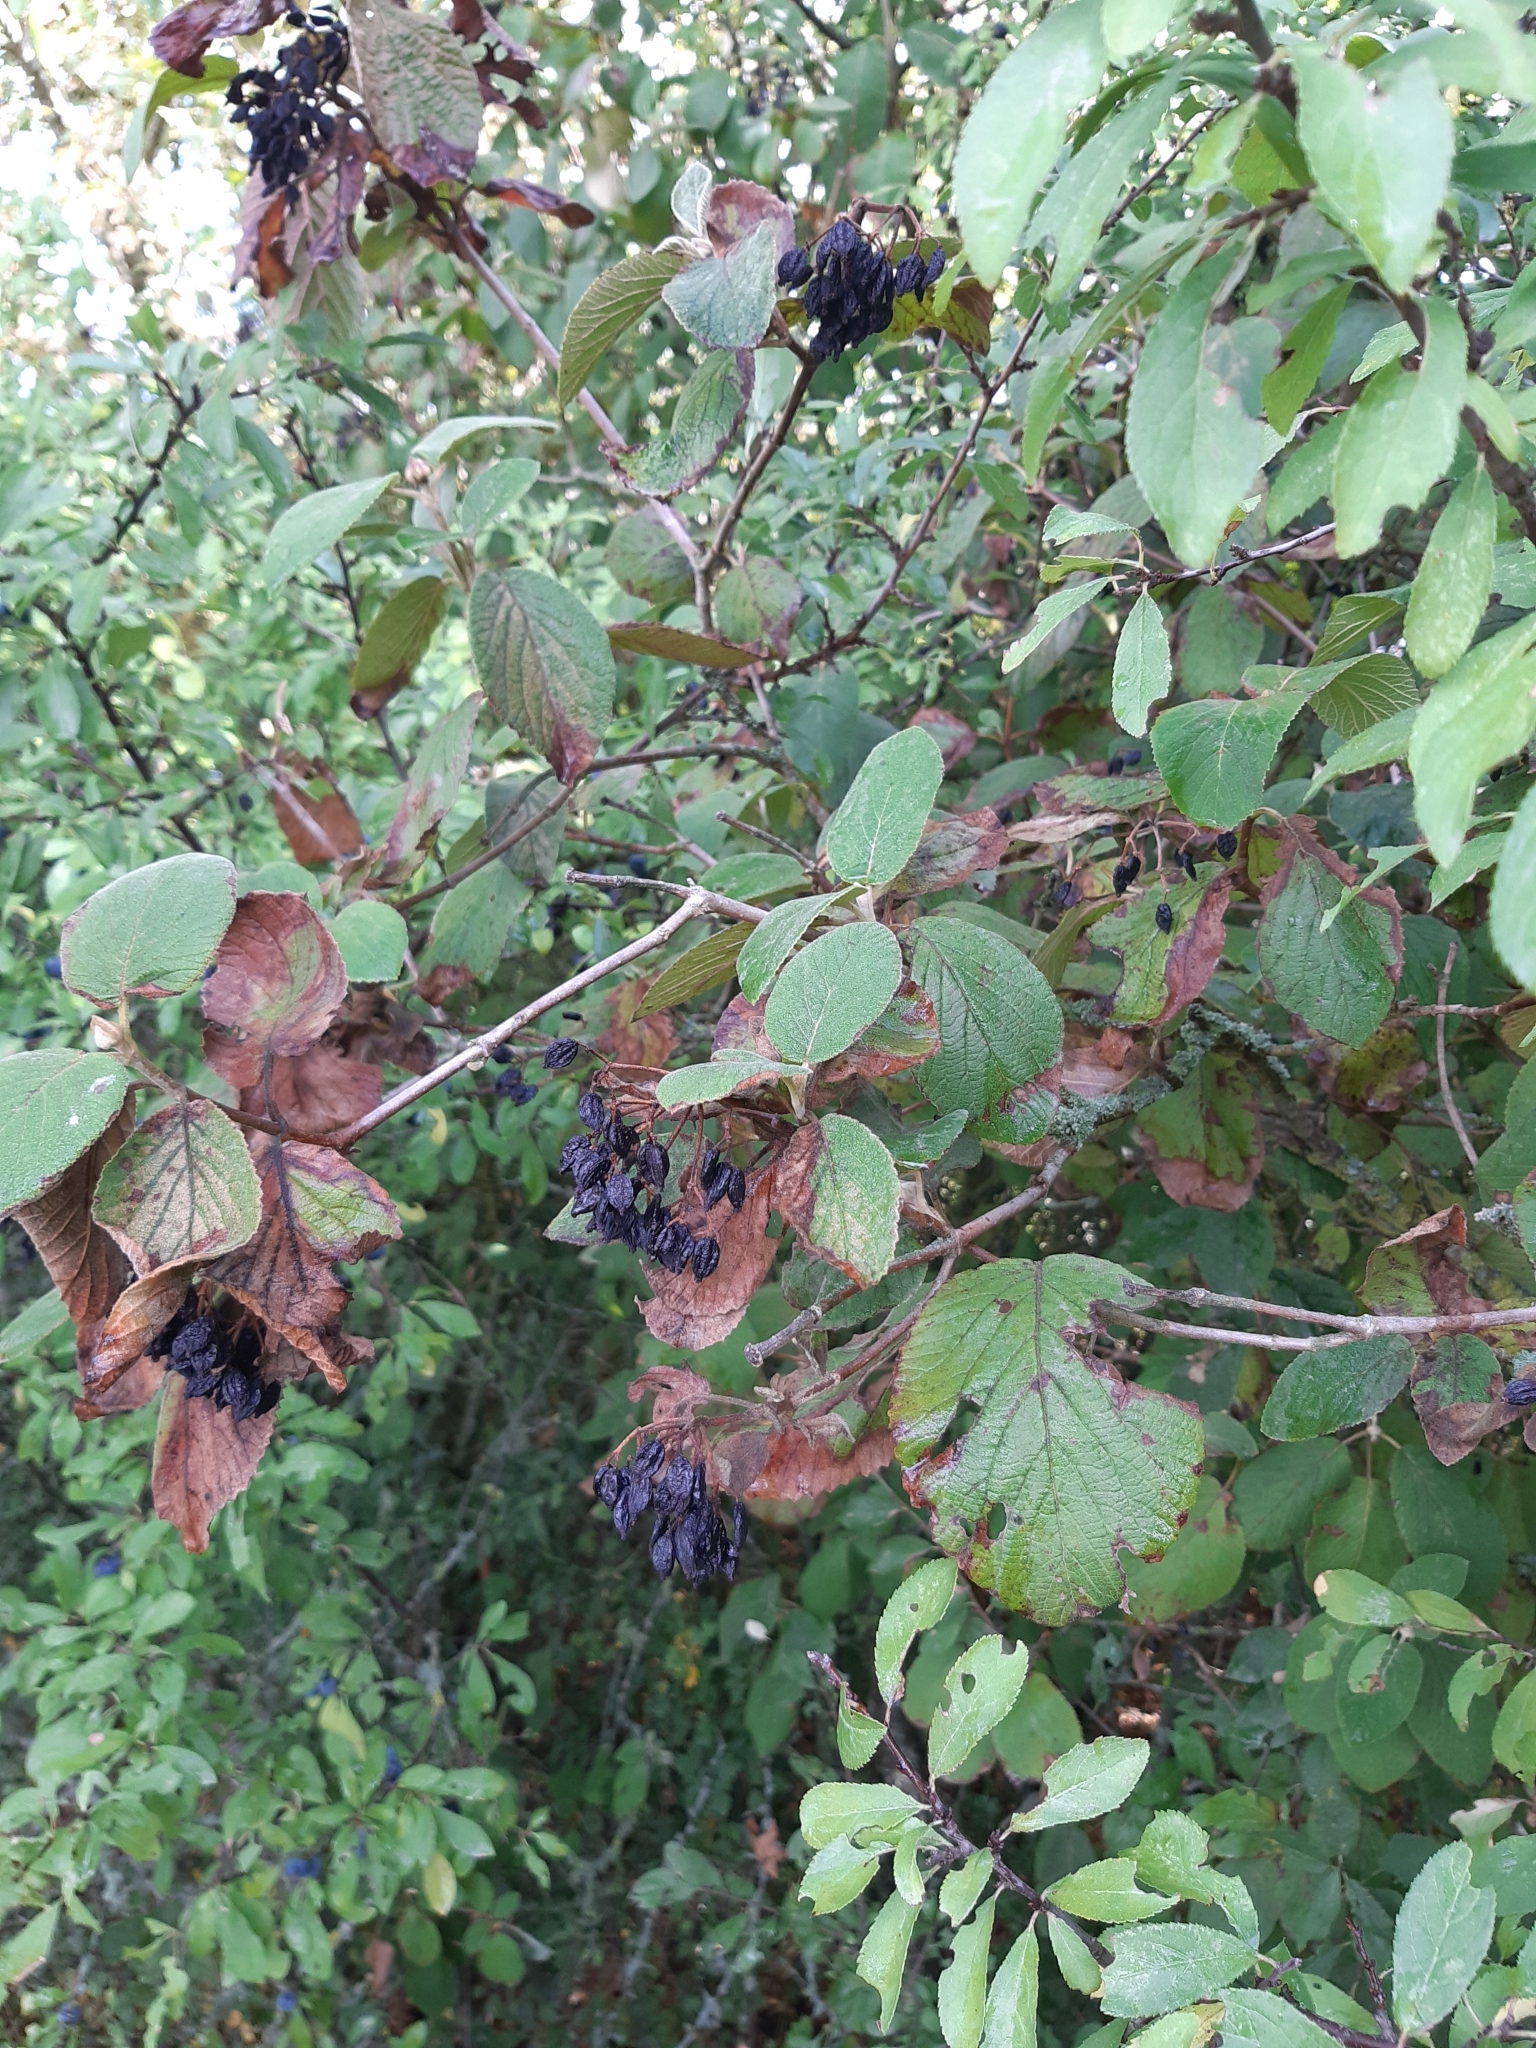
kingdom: Plantae
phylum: Tracheophyta
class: Magnoliopsida
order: Cornales
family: Cornaceae
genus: Cornus
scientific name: Cornus sanguinea
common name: Dogwood
